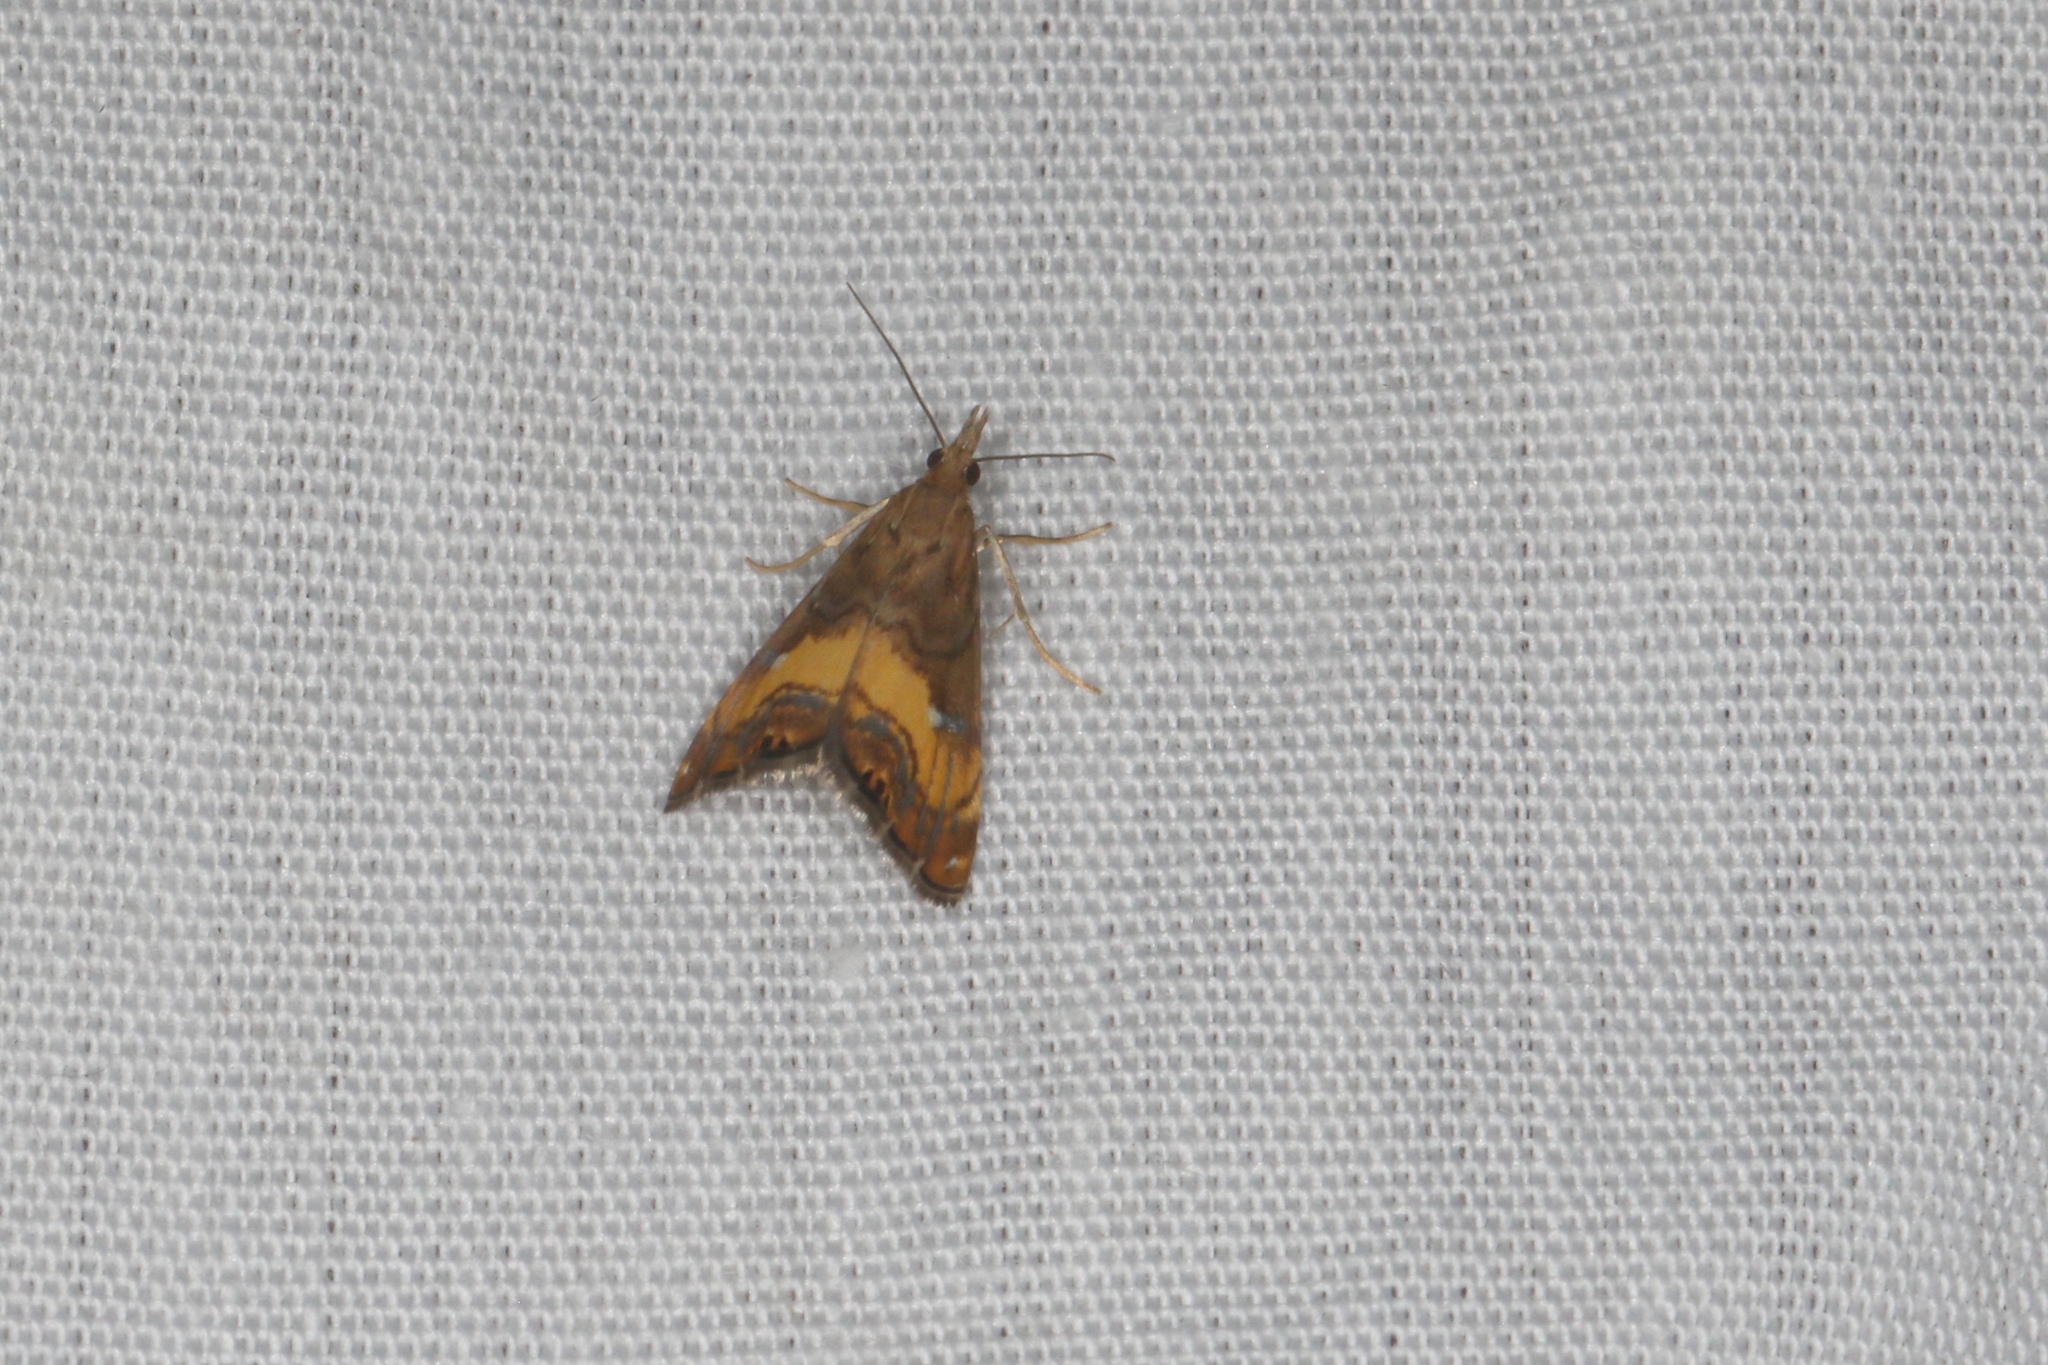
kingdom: Animalia
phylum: Arthropoda
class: Insecta
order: Lepidoptera
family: Crambidae
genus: Glaucocharis
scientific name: Glaucocharis chrysochyta
